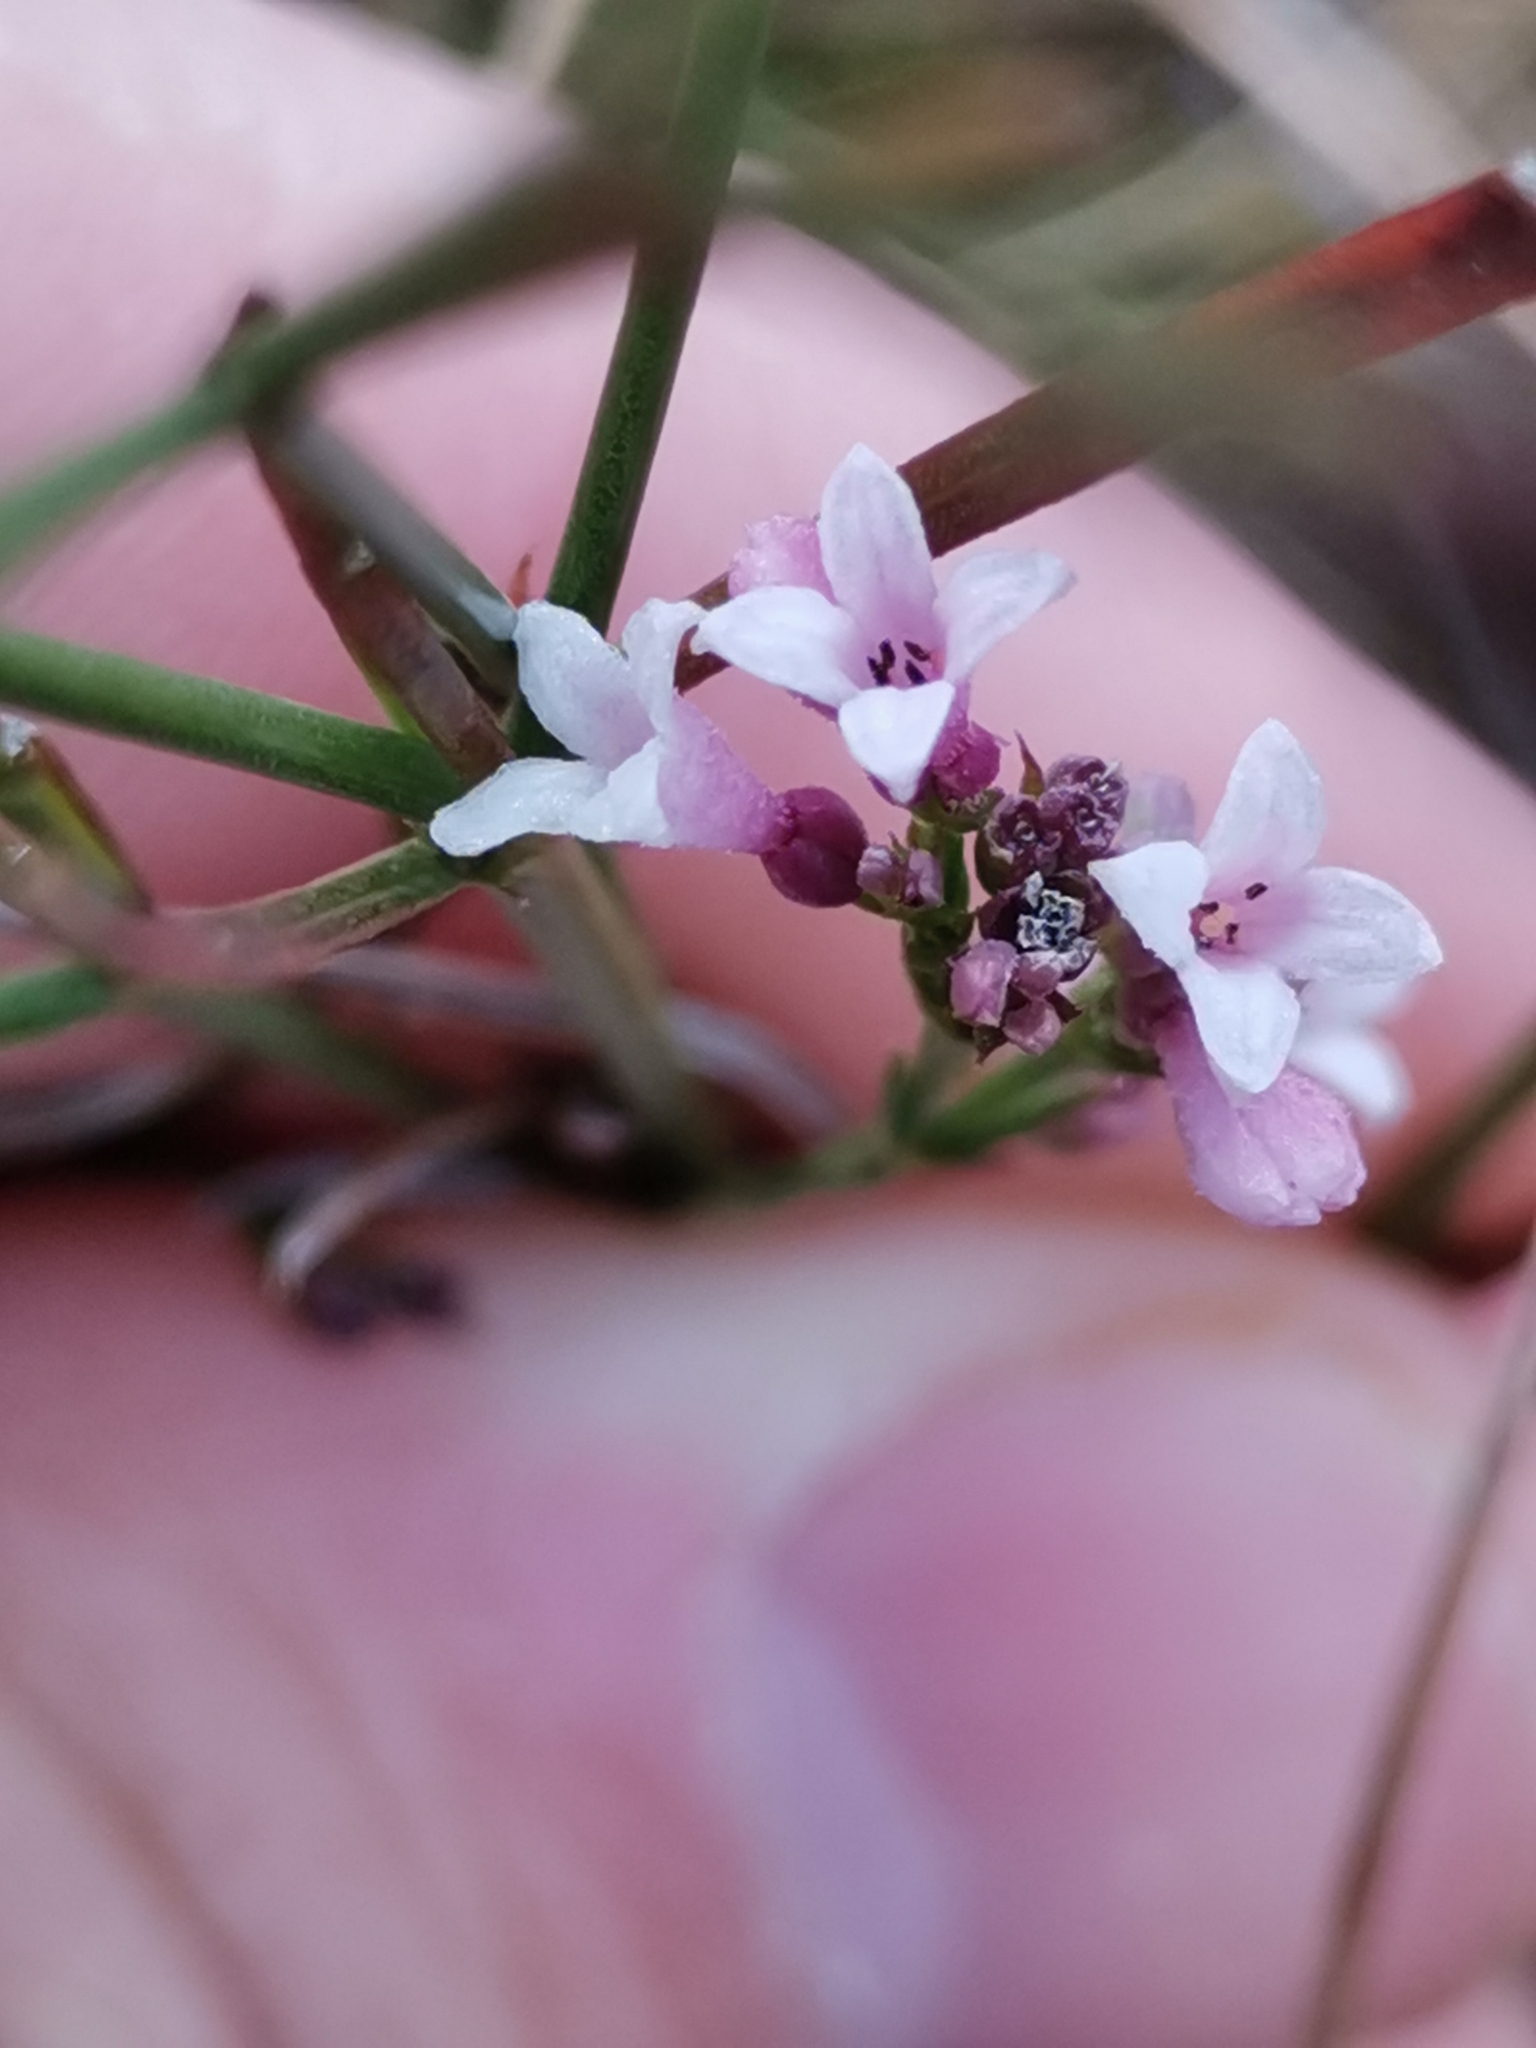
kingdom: Plantae
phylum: Tracheophyta
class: Magnoliopsida
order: Gentianales
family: Rubiaceae
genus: Cynanchica
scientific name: Cynanchica pyrenaica
